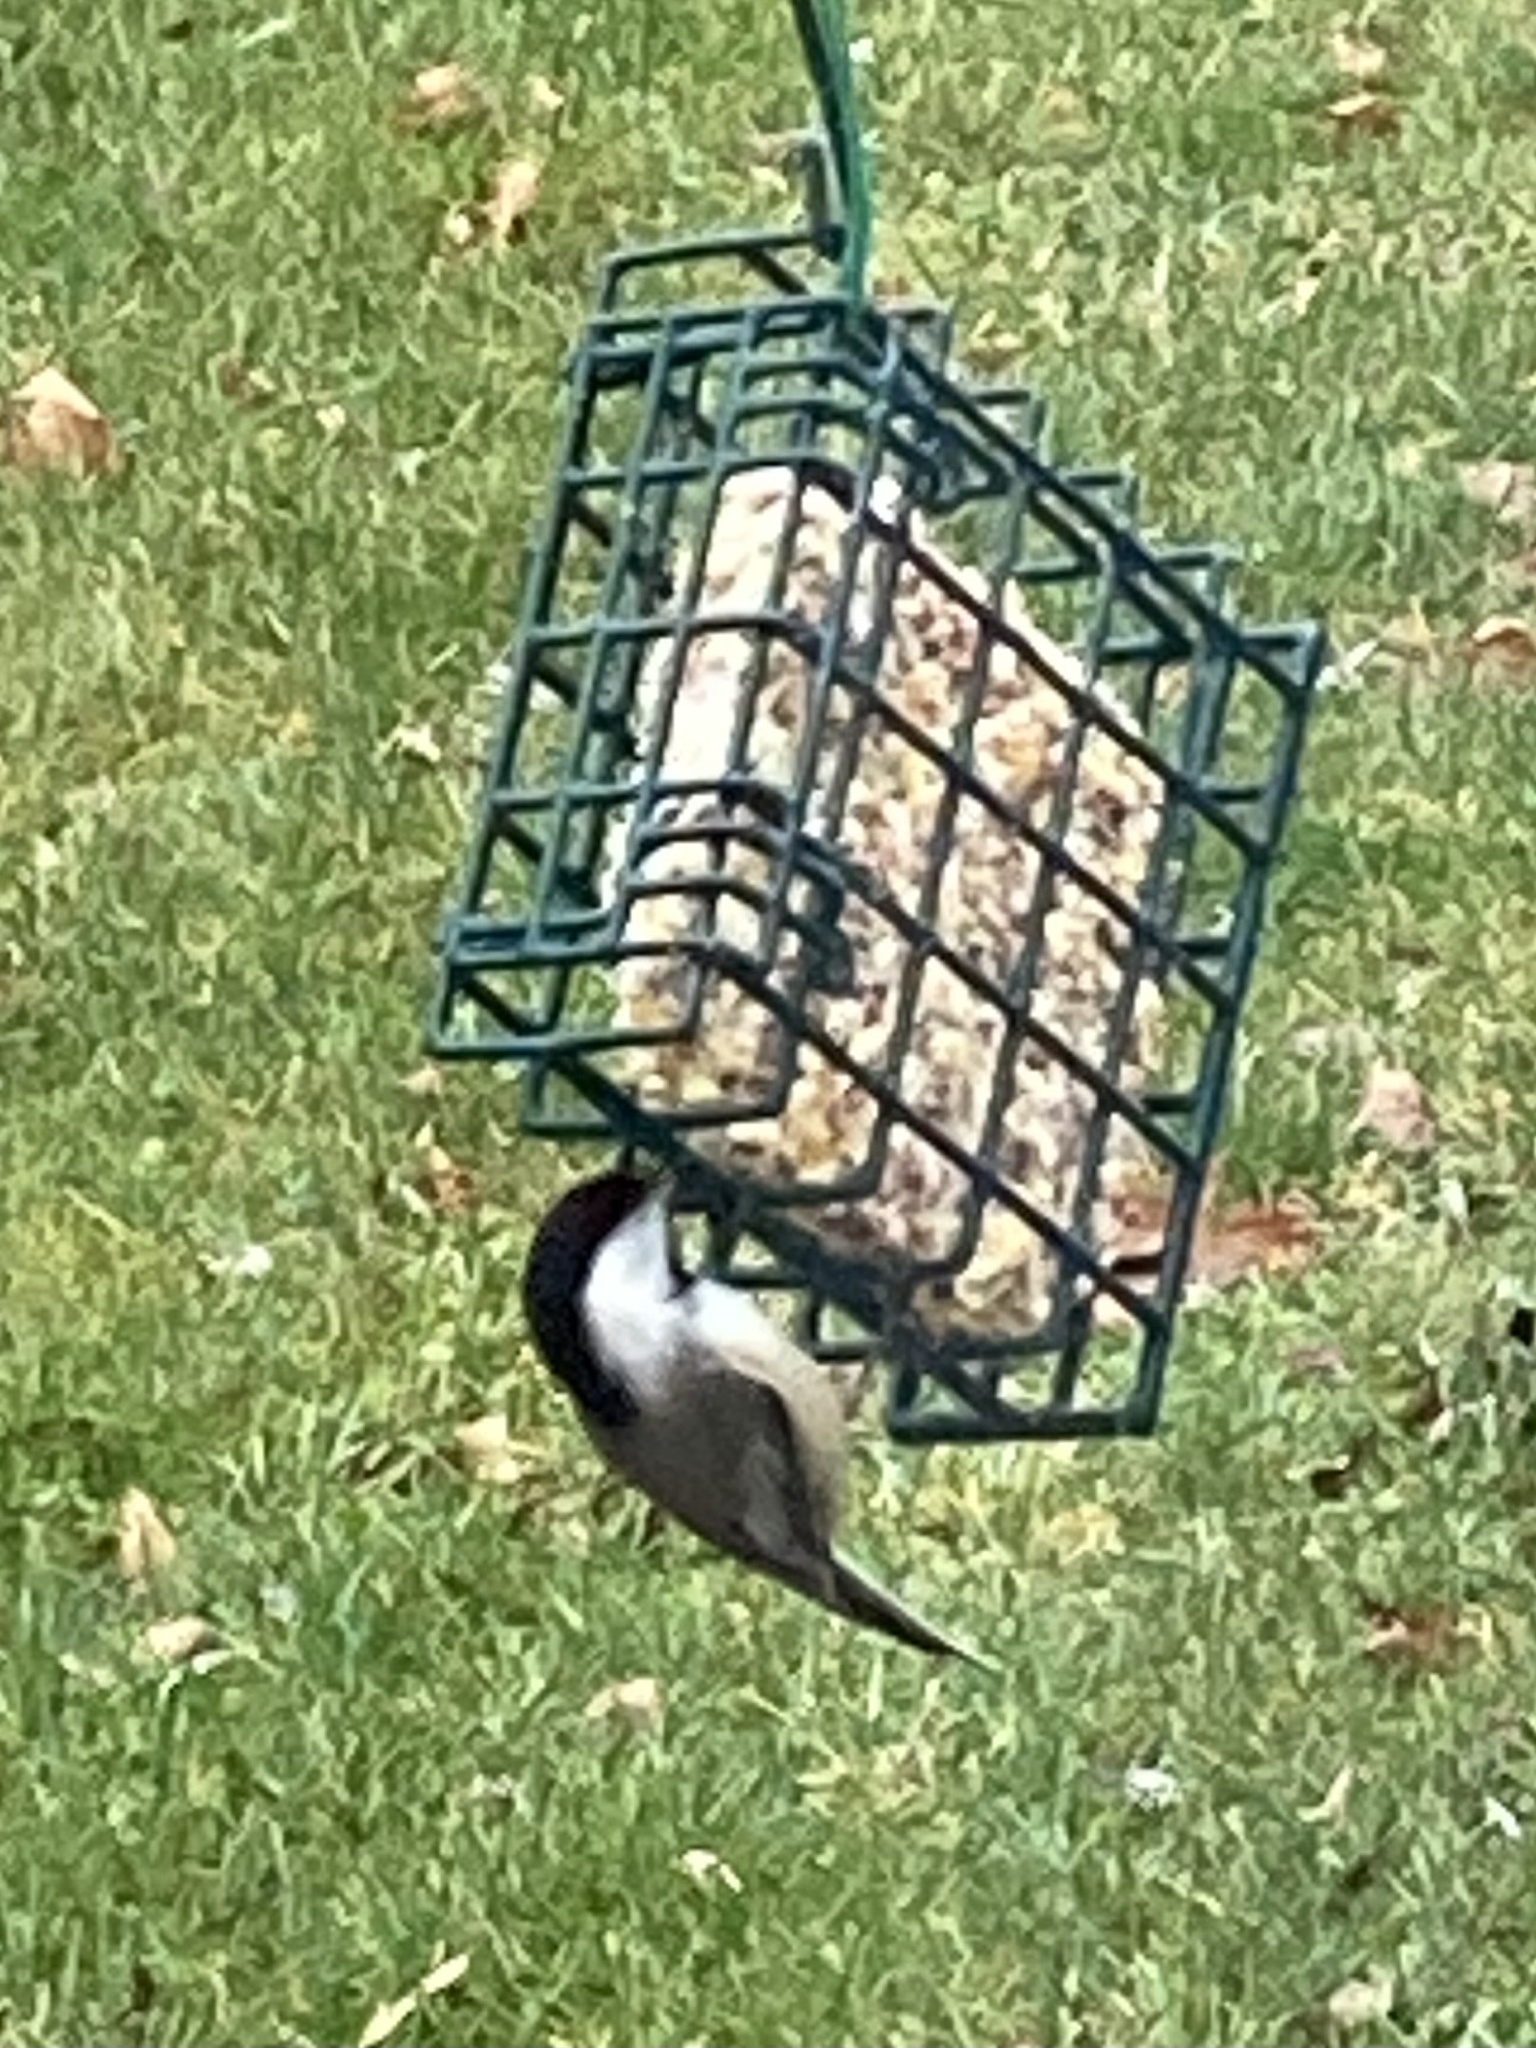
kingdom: Animalia
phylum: Chordata
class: Aves
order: Passeriformes
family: Paridae
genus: Poecile
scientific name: Poecile atricapillus
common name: Black-capped chickadee
